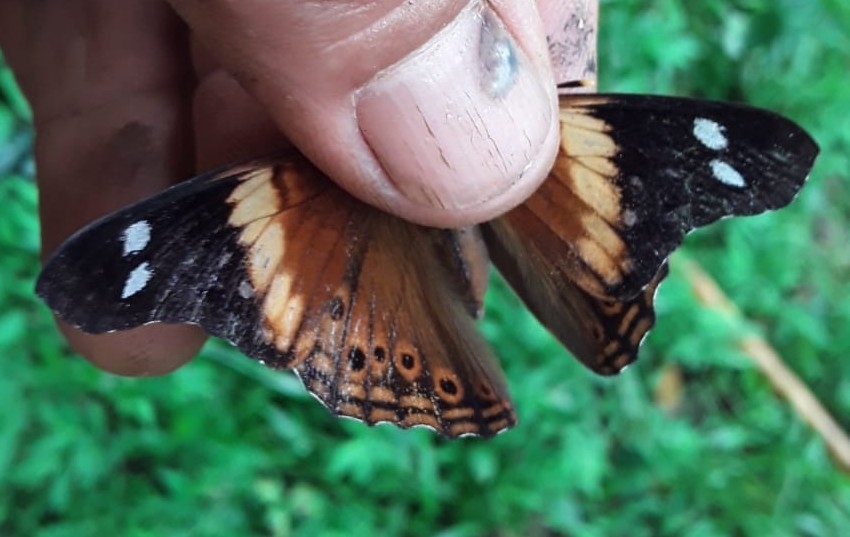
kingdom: Animalia
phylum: Arthropoda
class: Insecta
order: Lepidoptera
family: Nymphalidae
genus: Asterocampa
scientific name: Asterocampa idyja
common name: Dusky emperor
